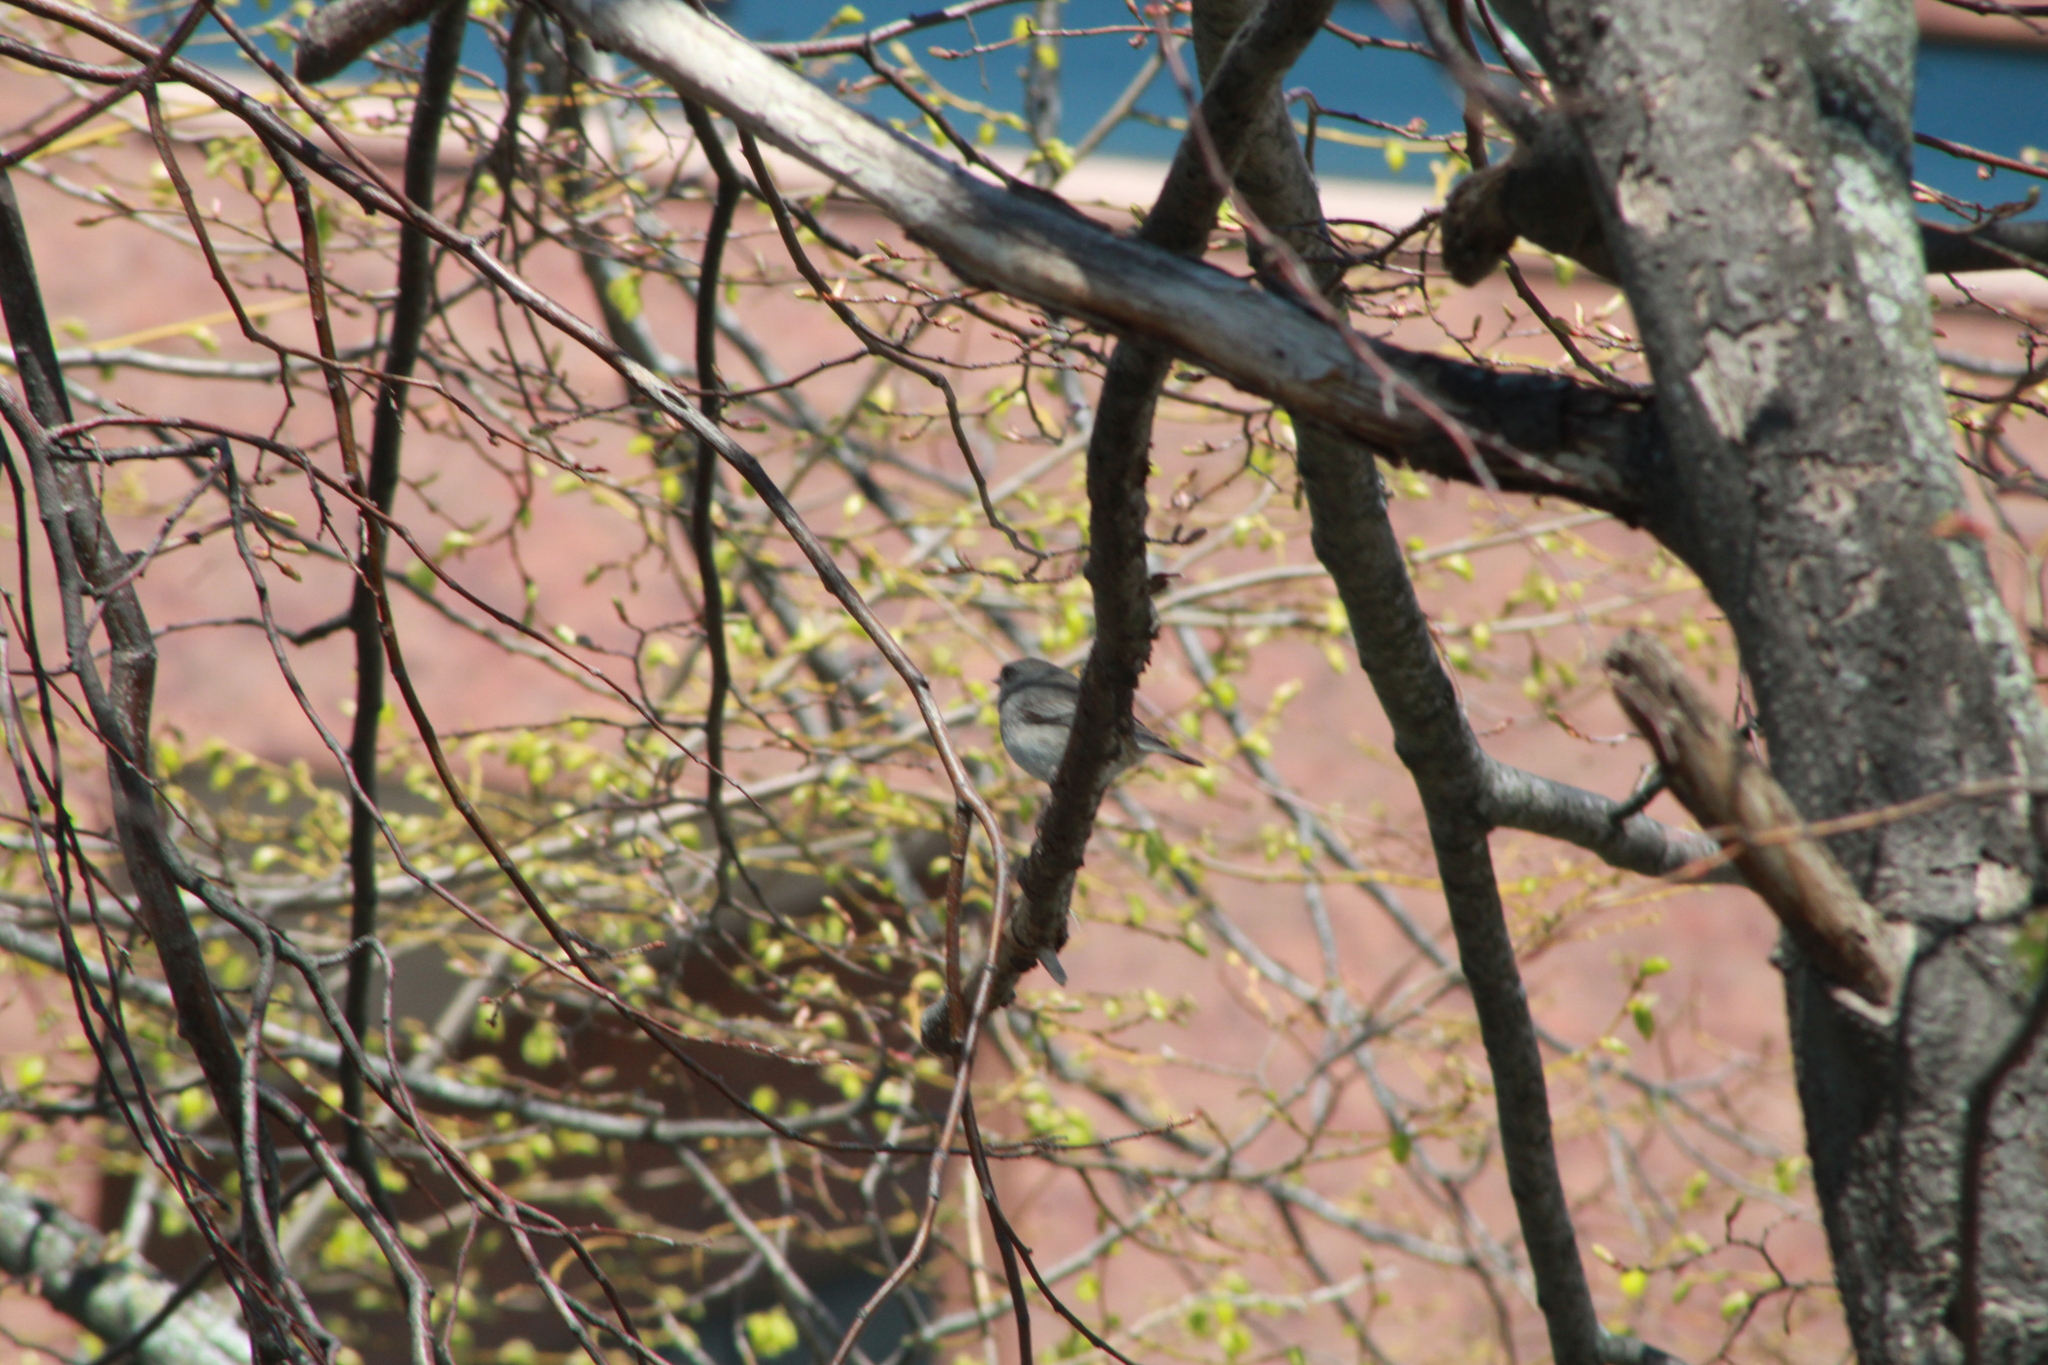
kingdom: Animalia
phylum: Chordata
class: Aves
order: Passeriformes
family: Passerellidae
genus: Junco
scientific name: Junco hyemalis
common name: Dark-eyed junco
